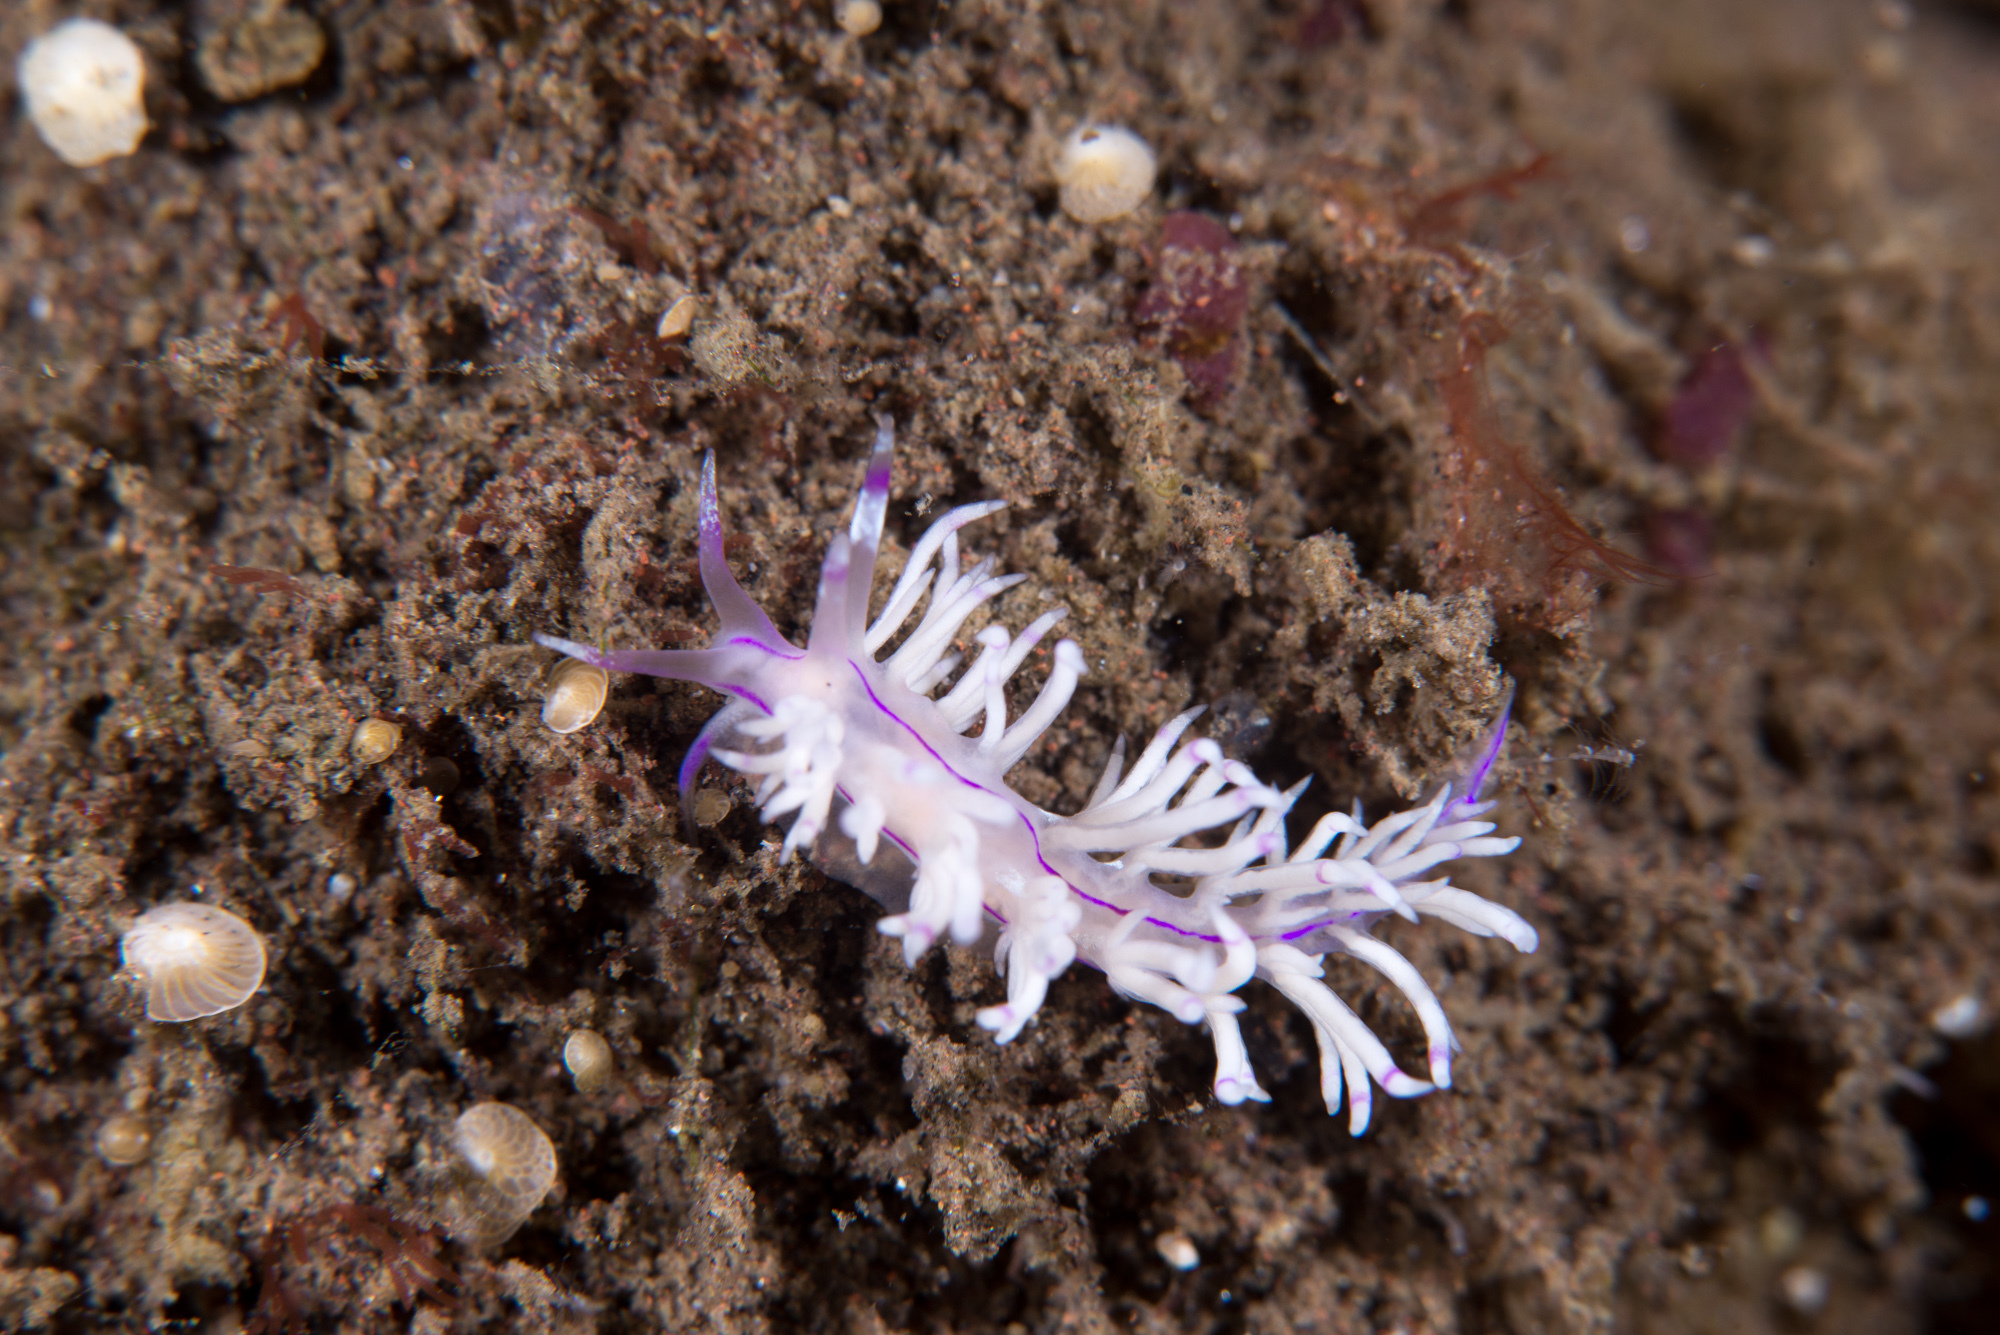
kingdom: Animalia
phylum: Mollusca
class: Gastropoda
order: Nudibranchia
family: Unidentiidae
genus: Unidentia
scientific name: Unidentia sandramillenae
